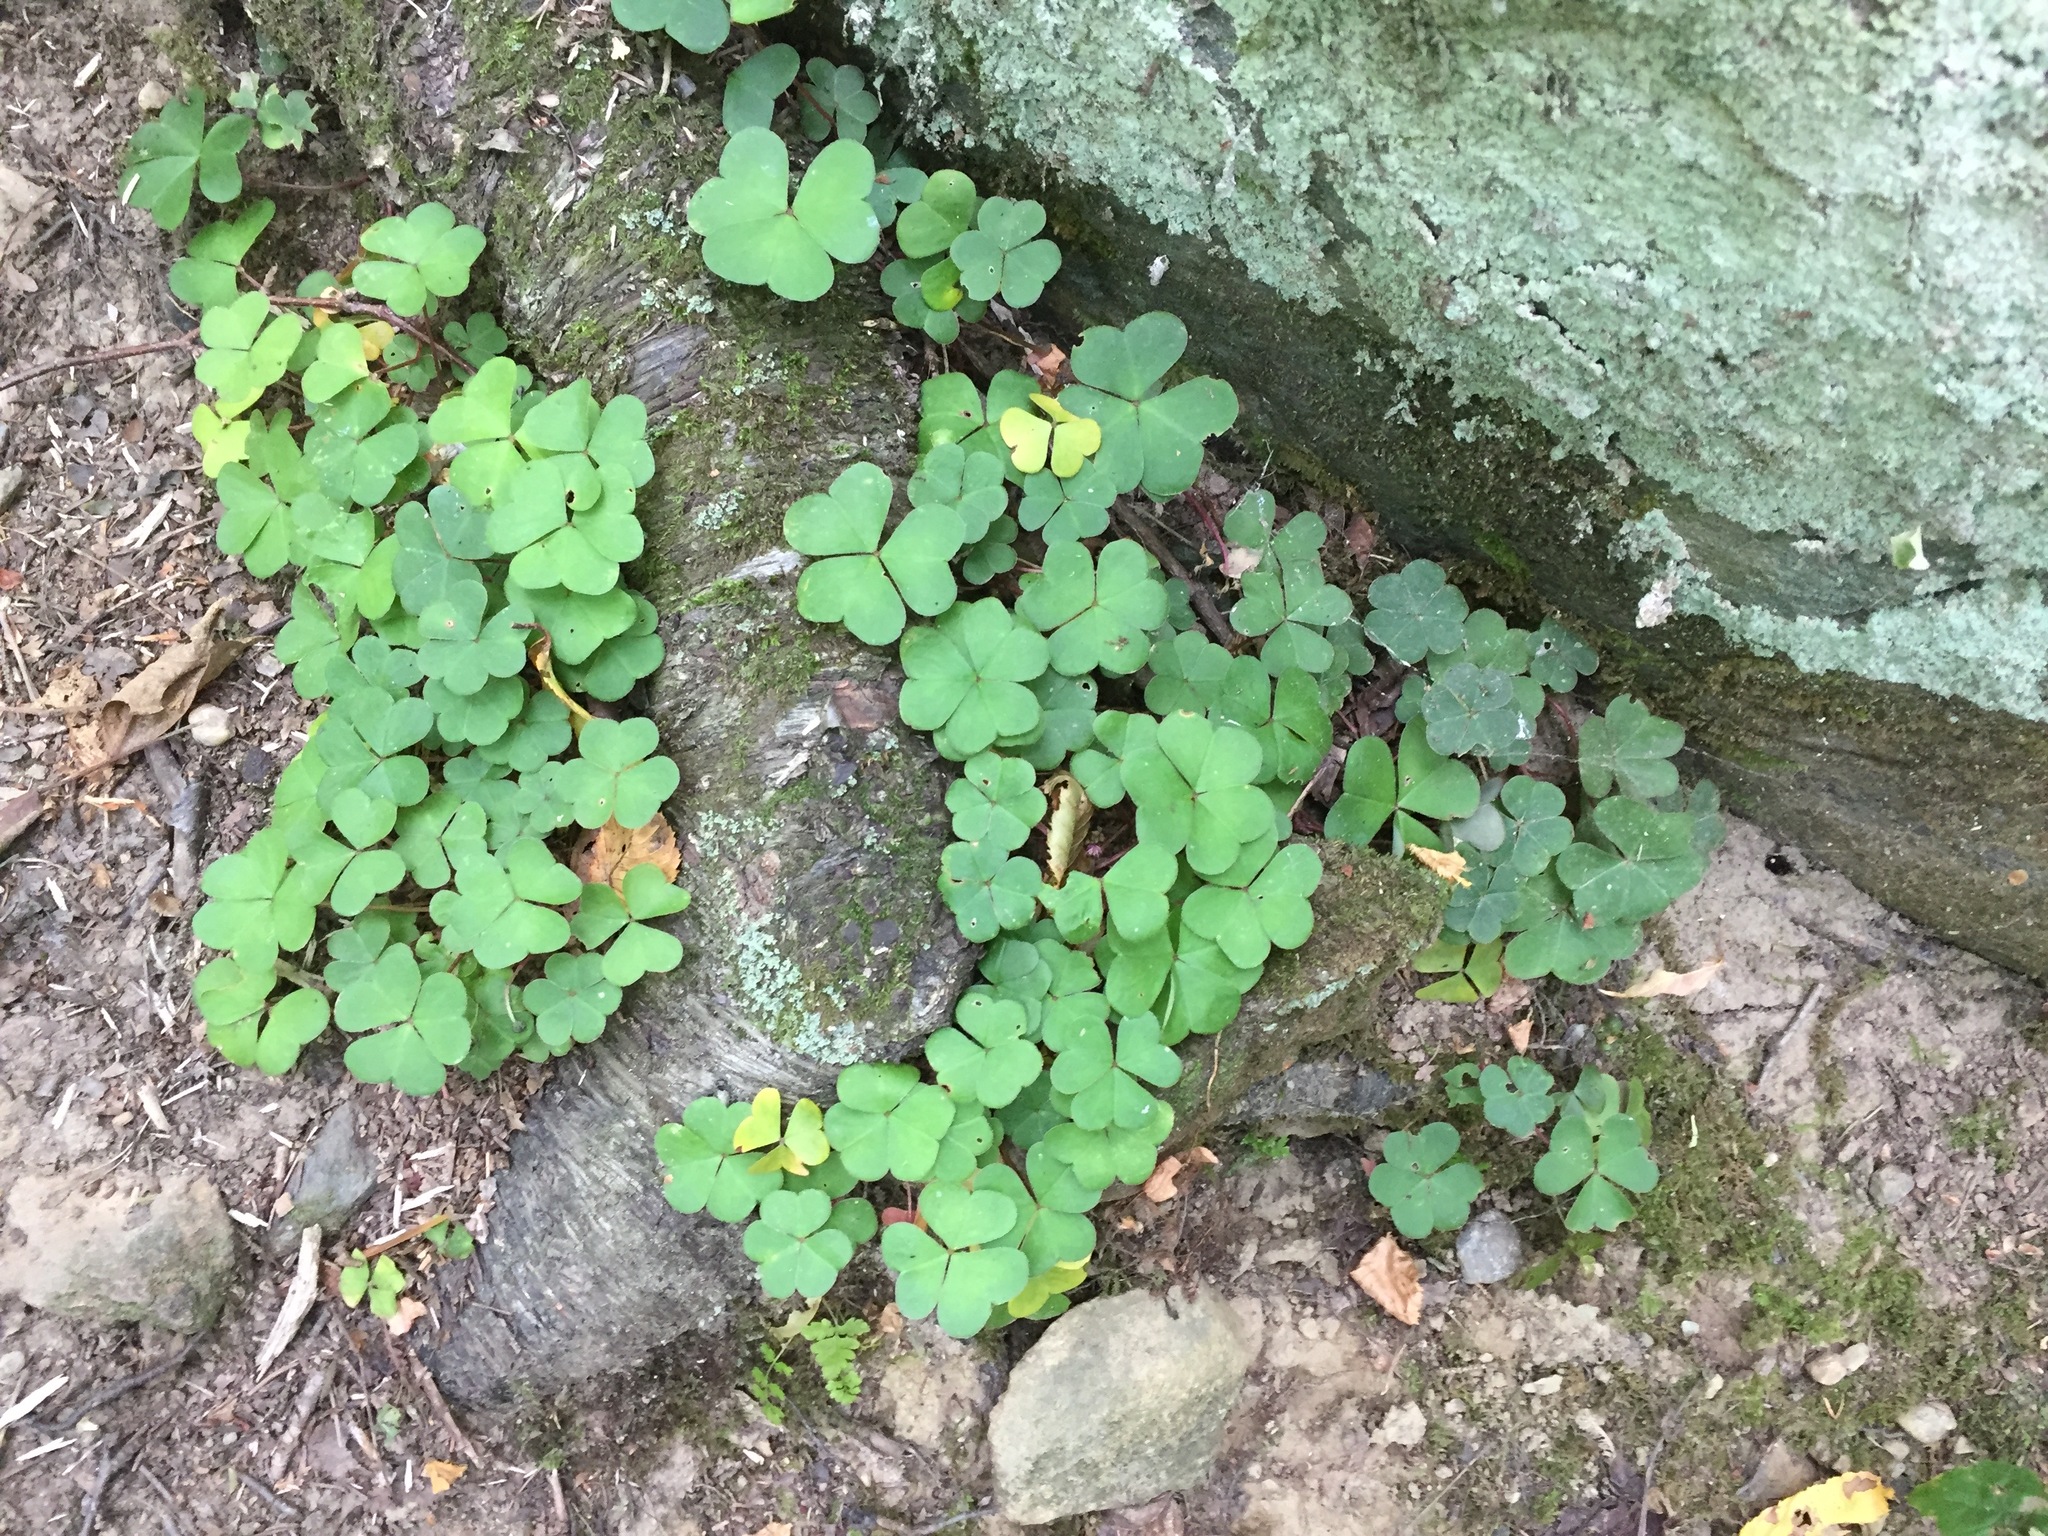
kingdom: Plantae
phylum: Tracheophyta
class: Magnoliopsida
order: Oxalidales
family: Oxalidaceae
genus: Oxalis
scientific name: Oxalis montana
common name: American wood-sorrel
